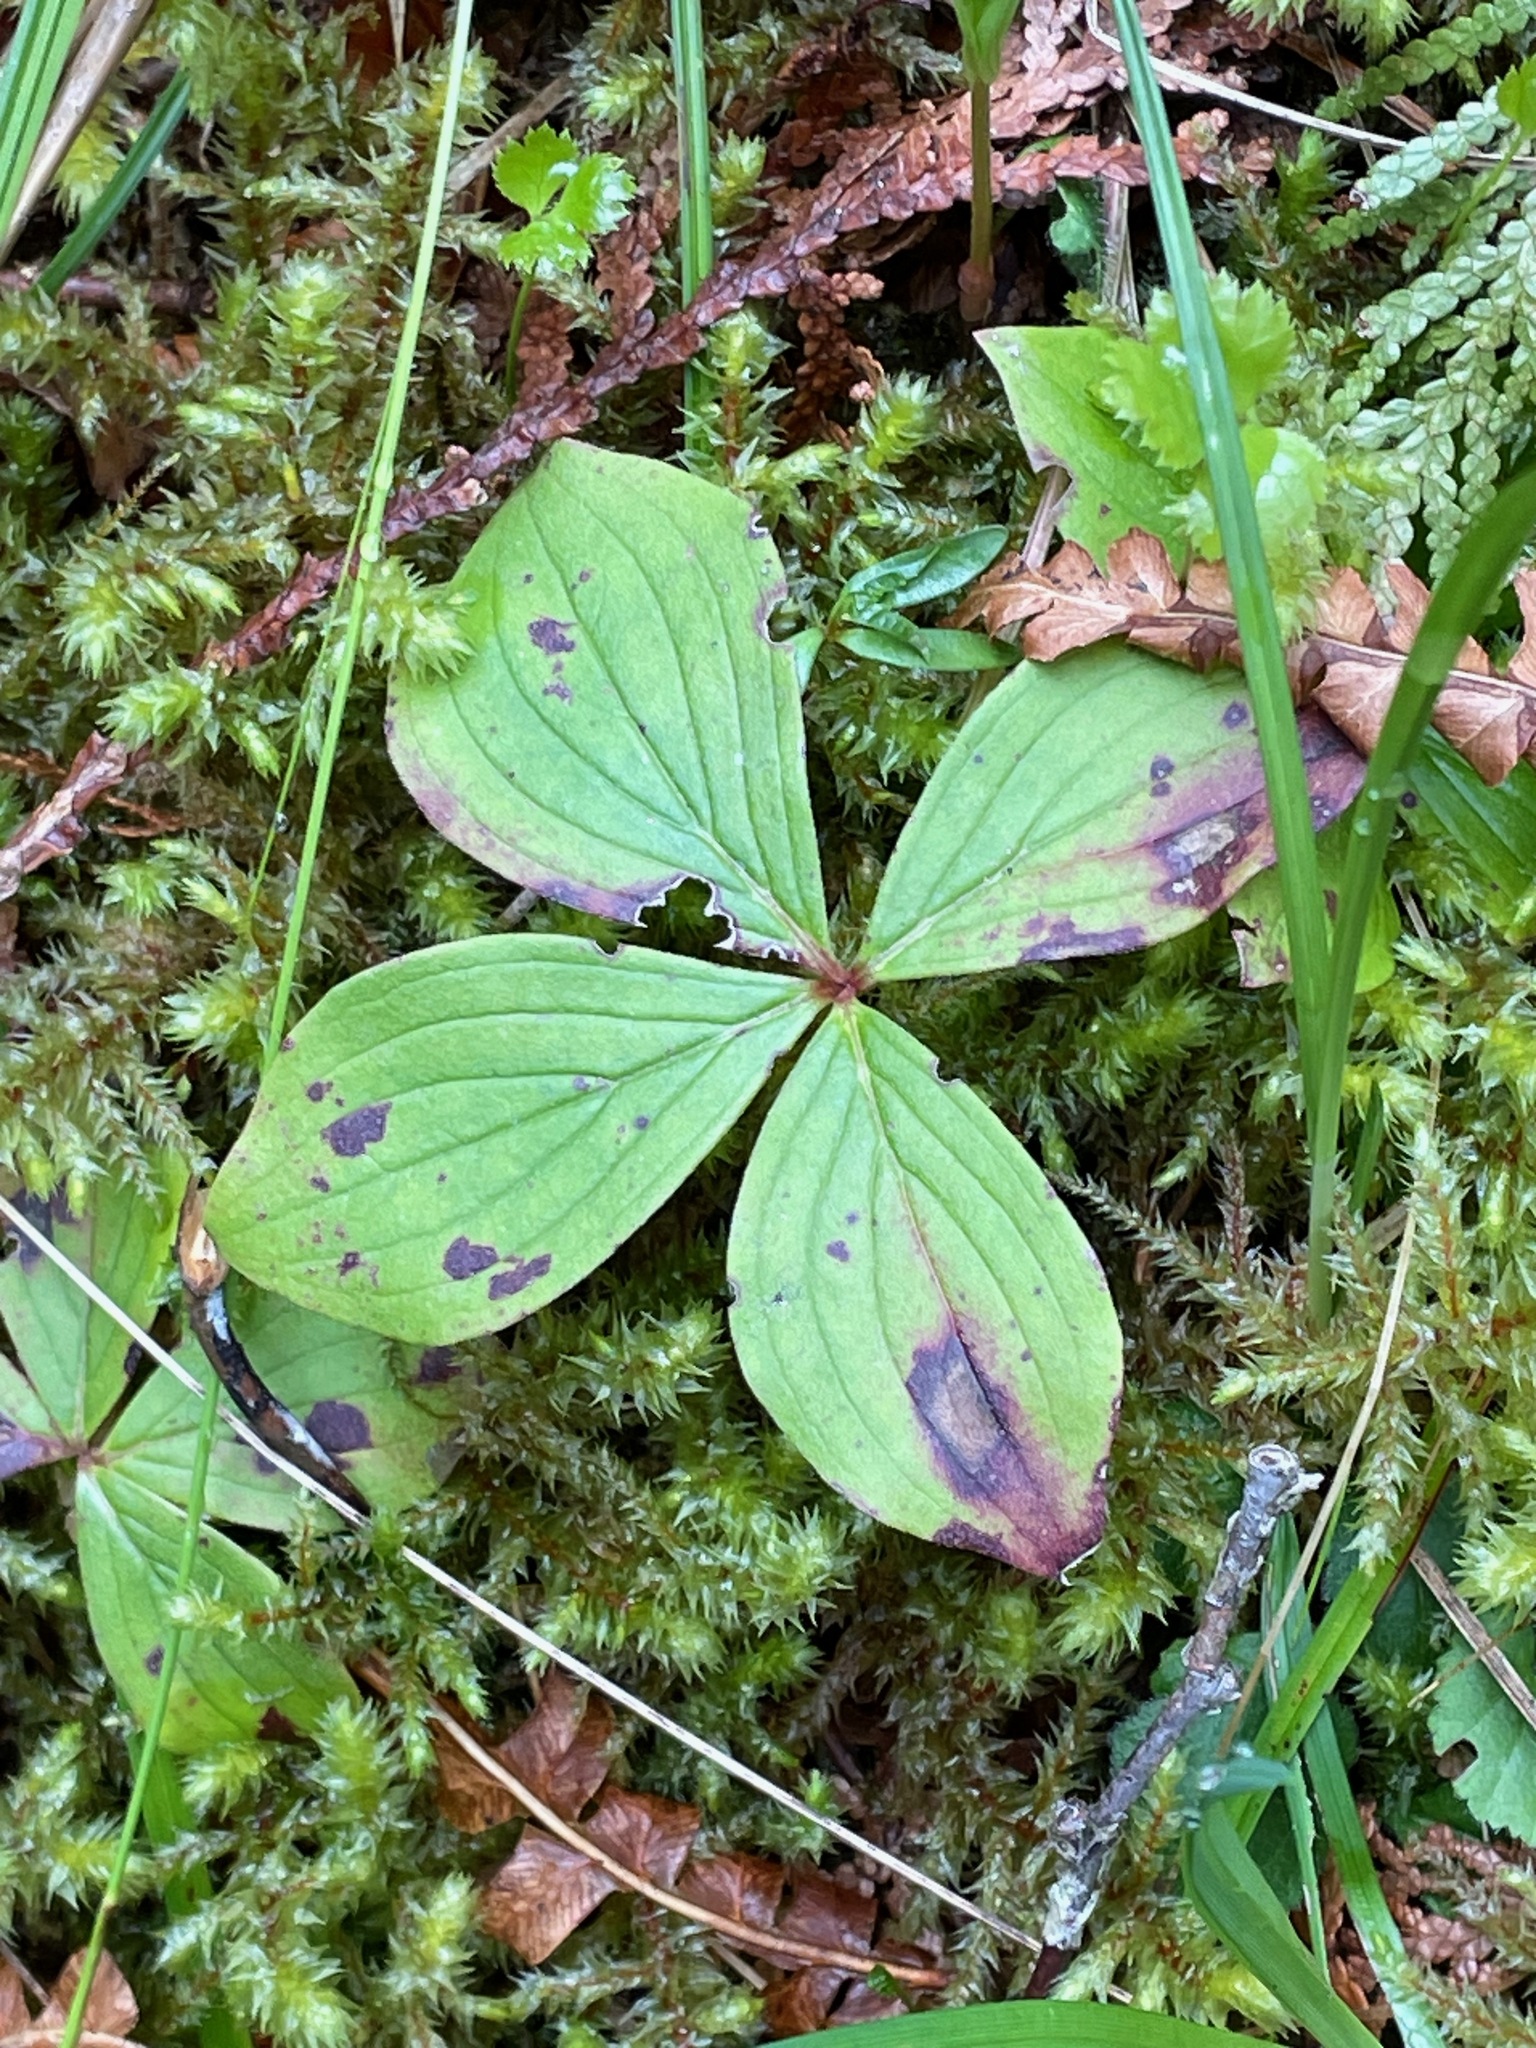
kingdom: Plantae
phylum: Tracheophyta
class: Magnoliopsida
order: Cornales
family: Cornaceae
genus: Cornus
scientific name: Cornus canadensis
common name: Creeping dogwood
